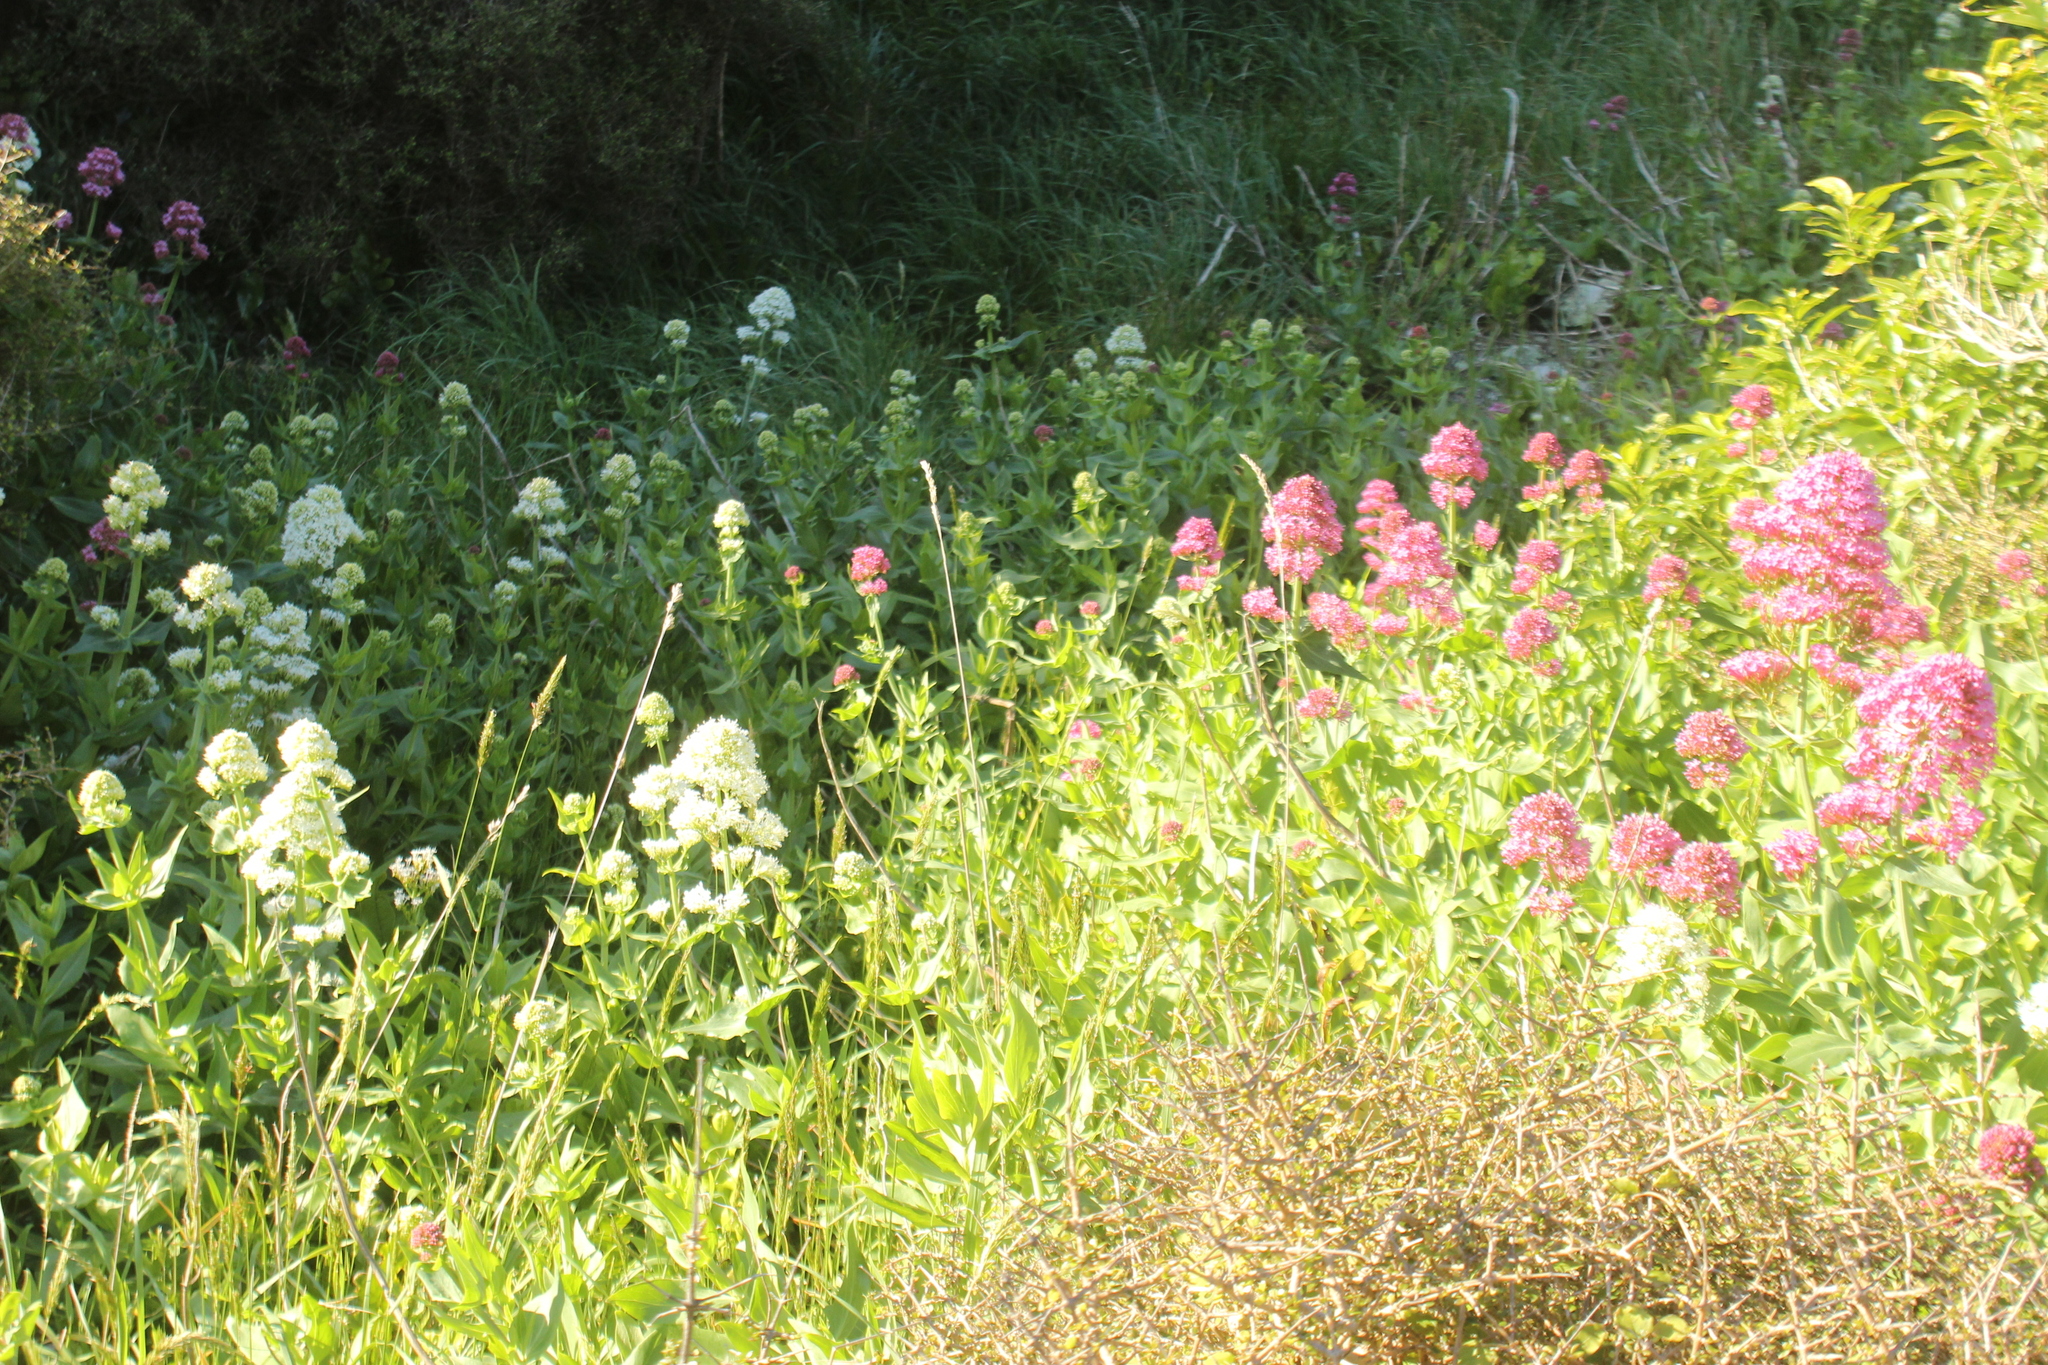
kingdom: Plantae
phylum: Tracheophyta
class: Magnoliopsida
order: Dipsacales
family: Caprifoliaceae
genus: Centranthus
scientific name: Centranthus ruber
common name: Red valerian
